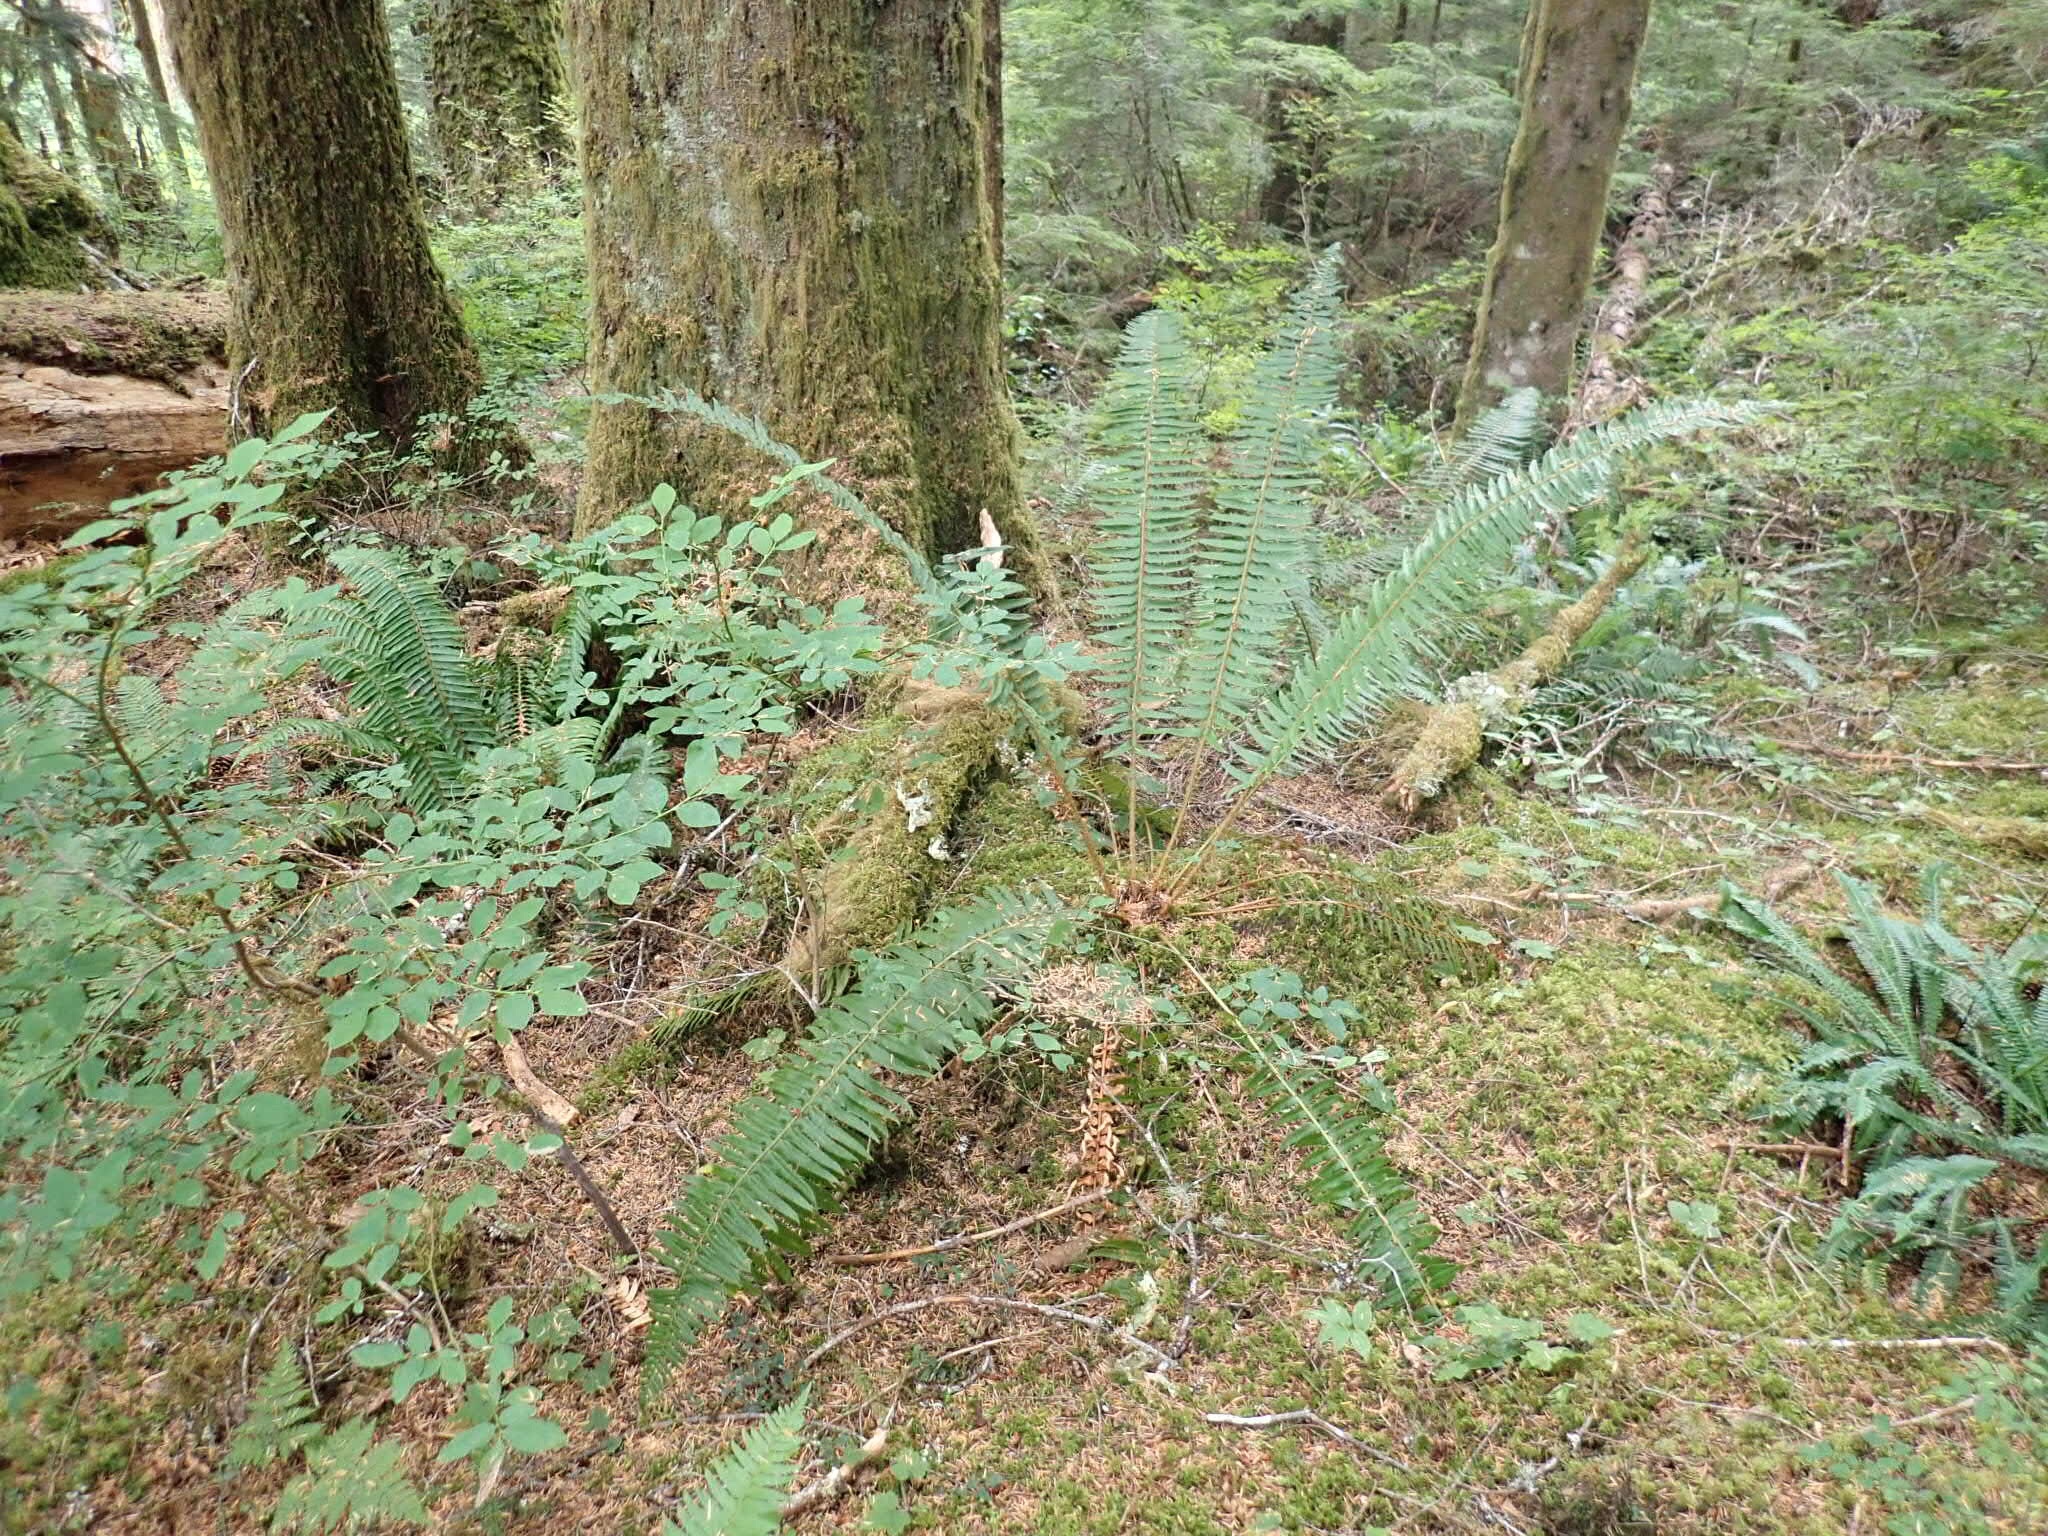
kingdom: Plantae
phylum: Tracheophyta
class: Polypodiopsida
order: Polypodiales
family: Dryopteridaceae
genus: Polystichum
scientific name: Polystichum munitum
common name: Western sword-fern
